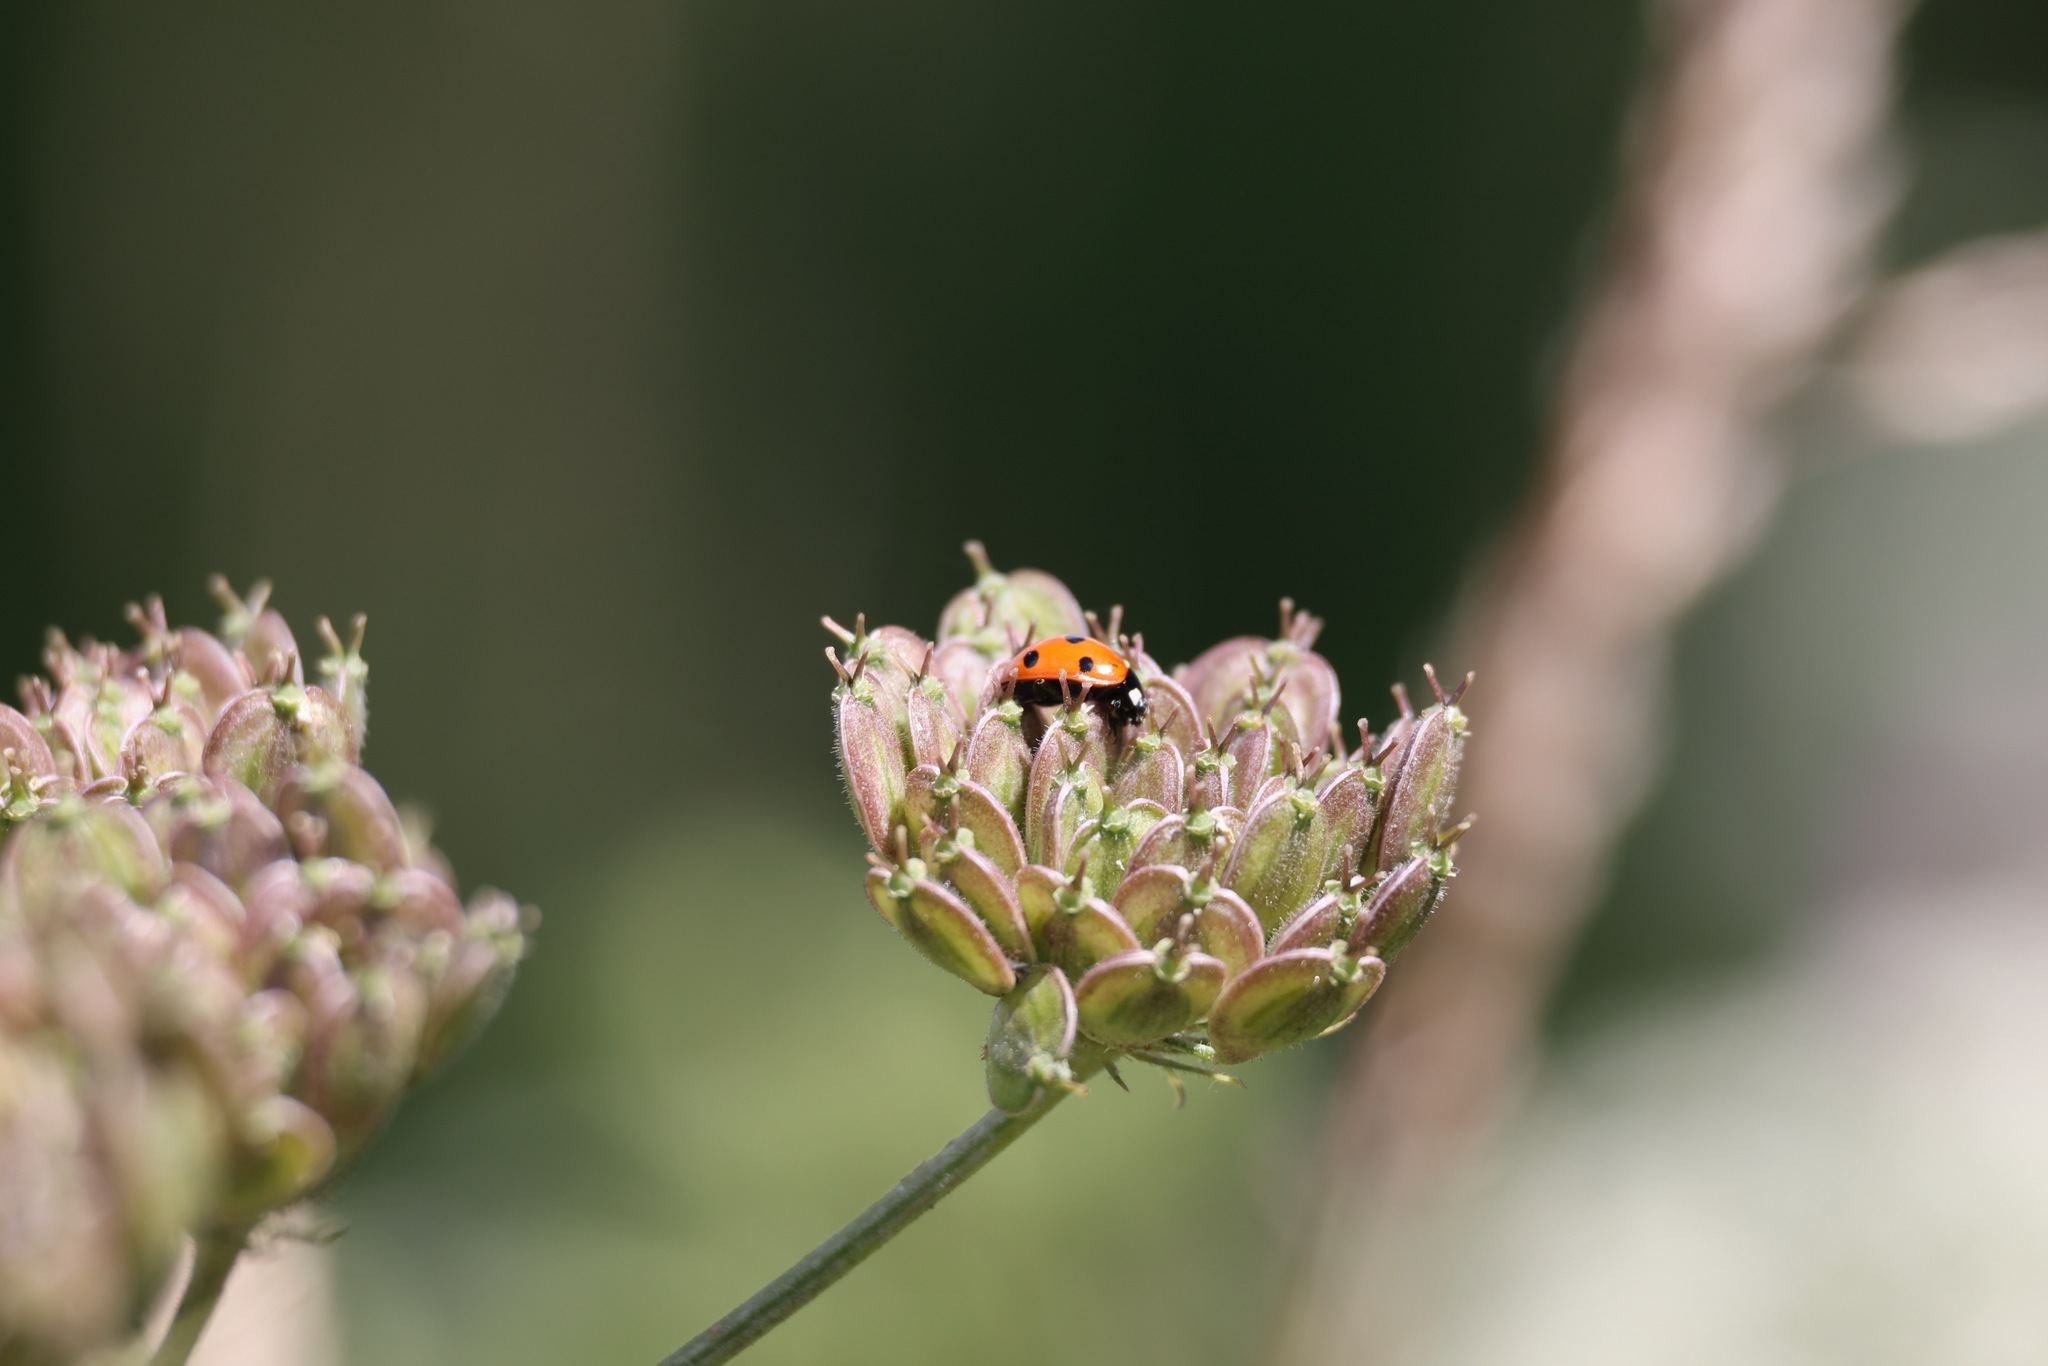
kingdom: Animalia
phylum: Arthropoda
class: Insecta
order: Coleoptera
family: Coccinellidae
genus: Coccinella
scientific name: Coccinella septempunctata
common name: Sevenspotted lady beetle
